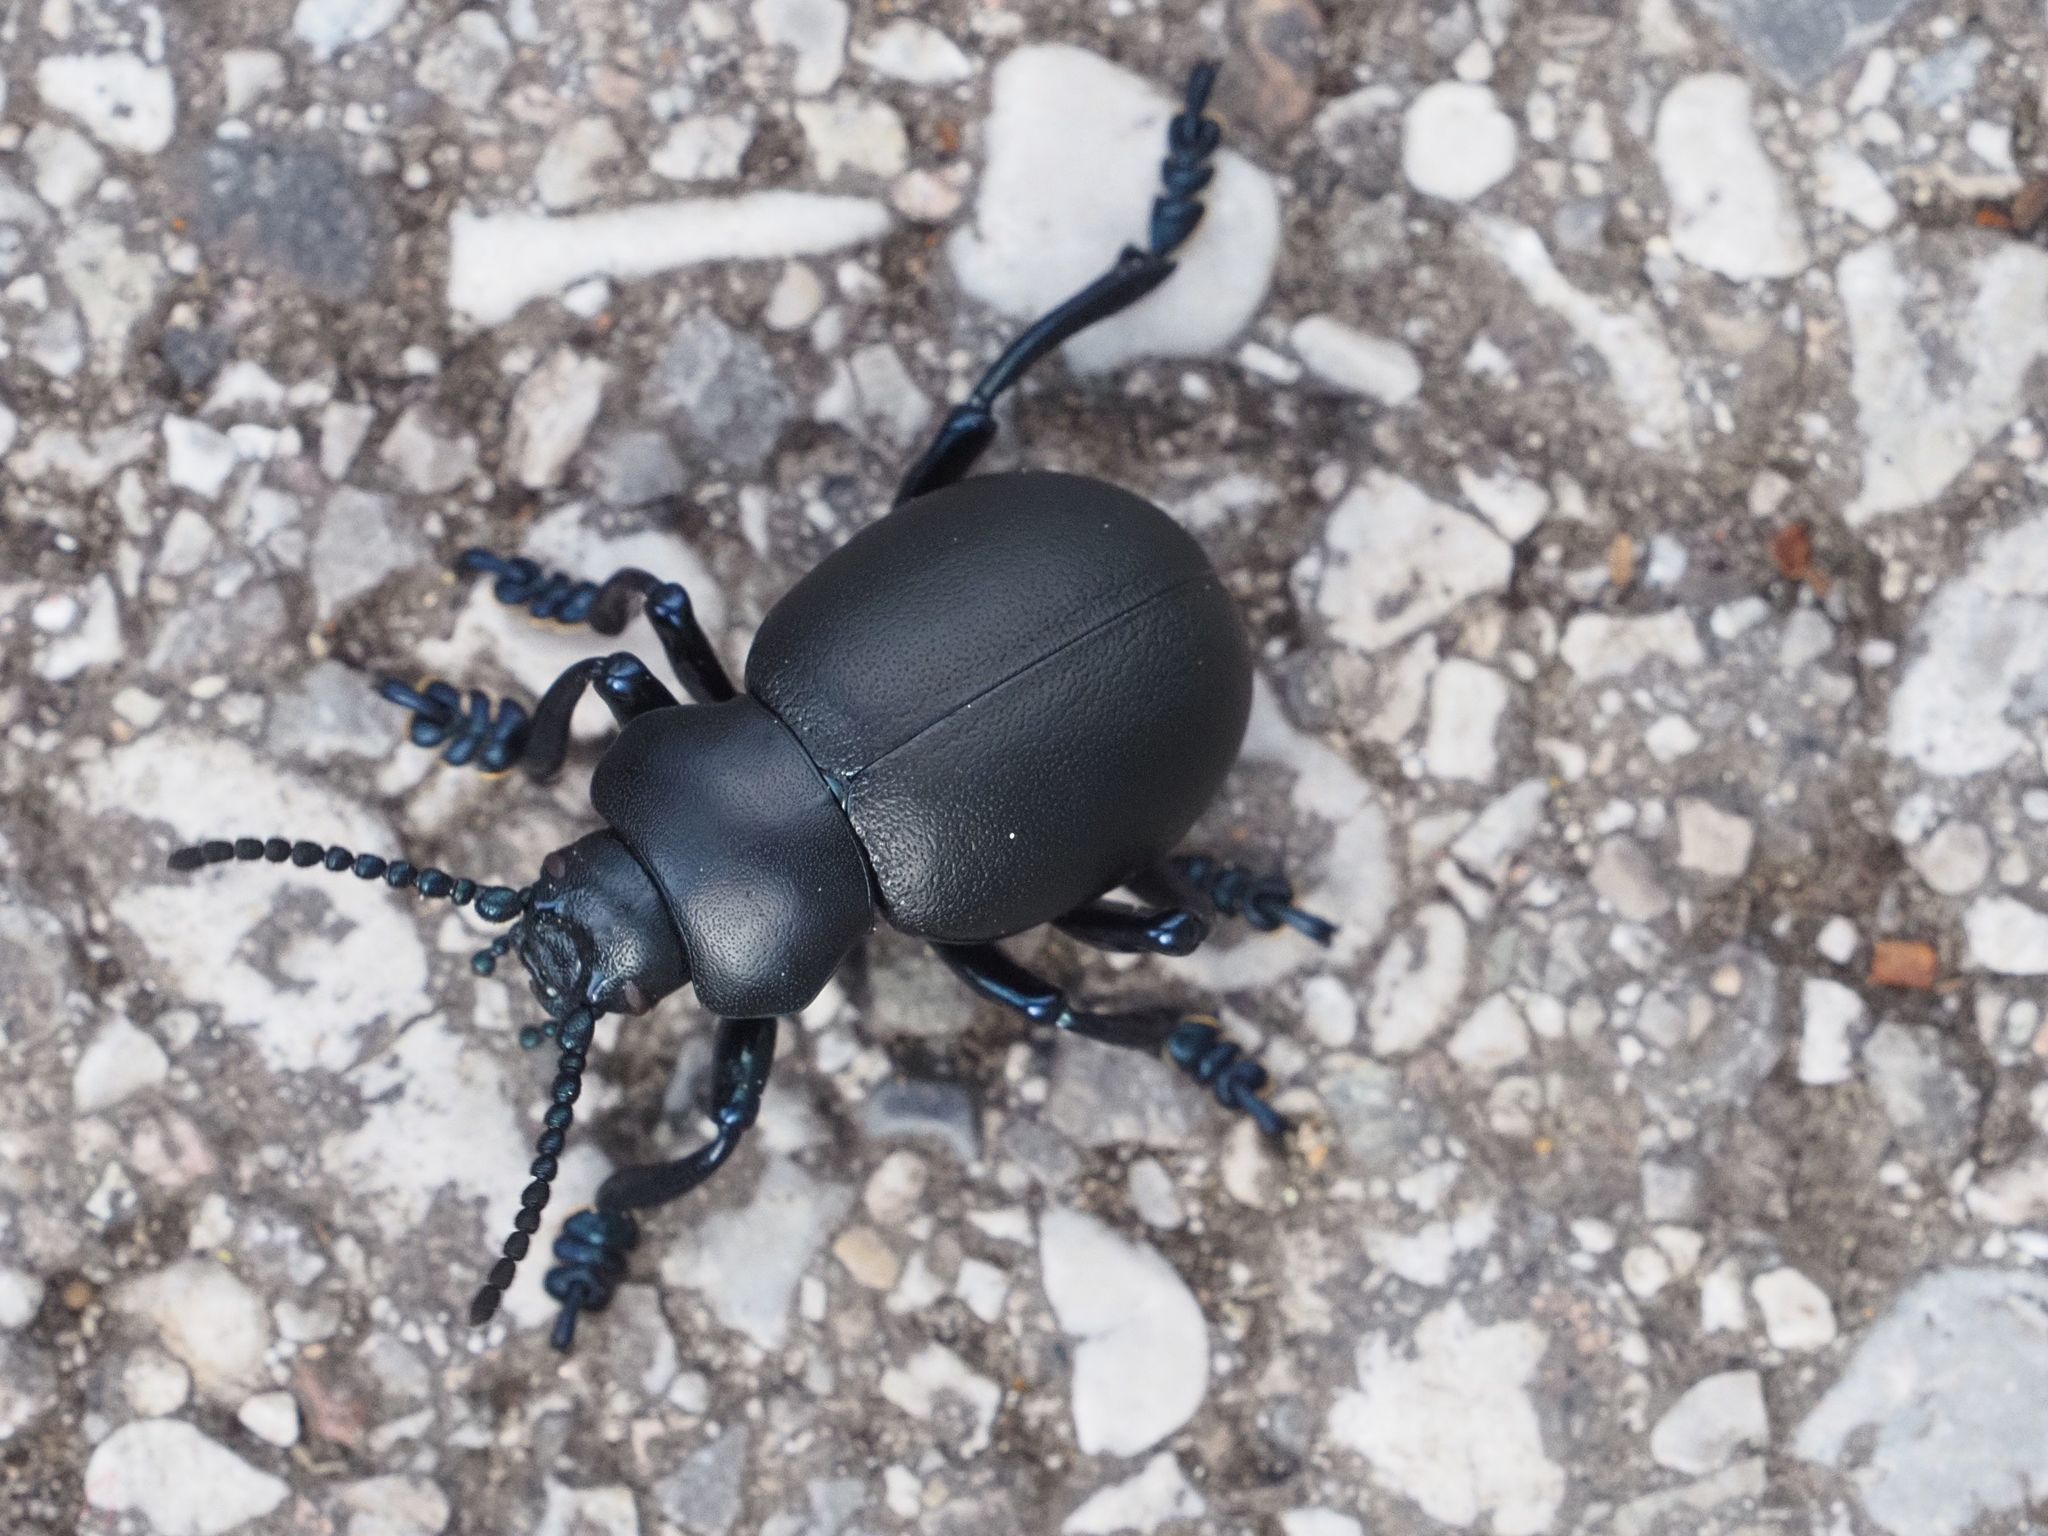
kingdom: Animalia
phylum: Arthropoda
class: Insecta
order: Coleoptera
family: Chrysomelidae
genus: Timarcha
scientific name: Timarcha tenebricosa
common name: Bloody-nosed beetle
